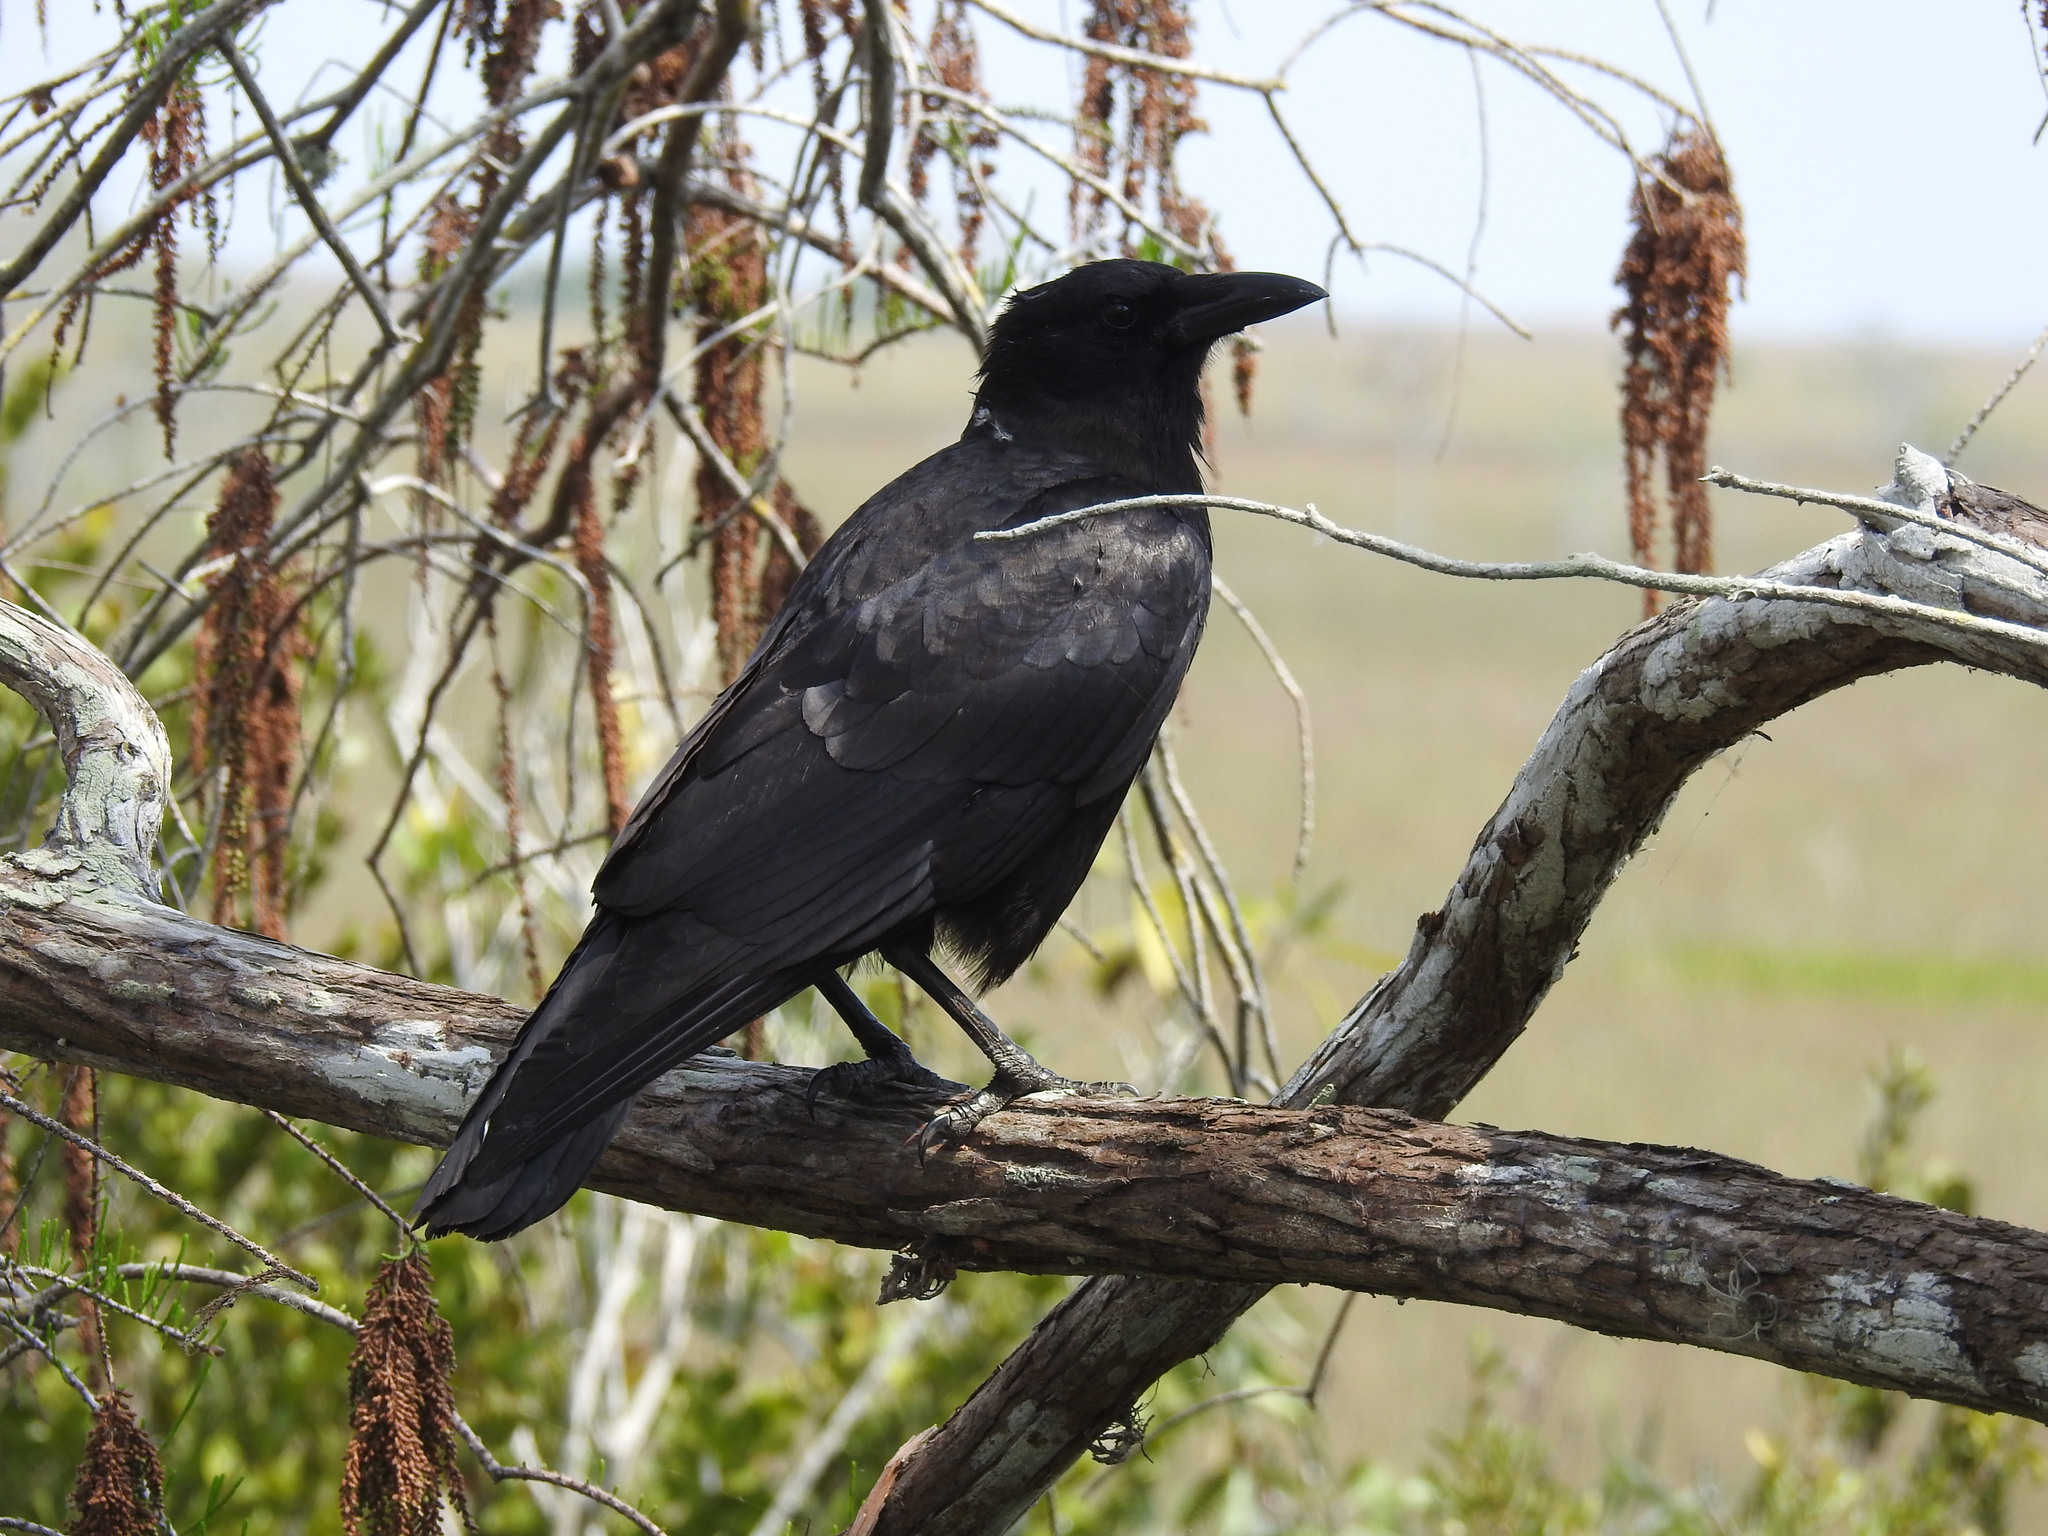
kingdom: Animalia
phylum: Chordata
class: Aves
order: Passeriformes
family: Corvidae
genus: Corvus
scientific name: Corvus brachyrhynchos
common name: American crow
